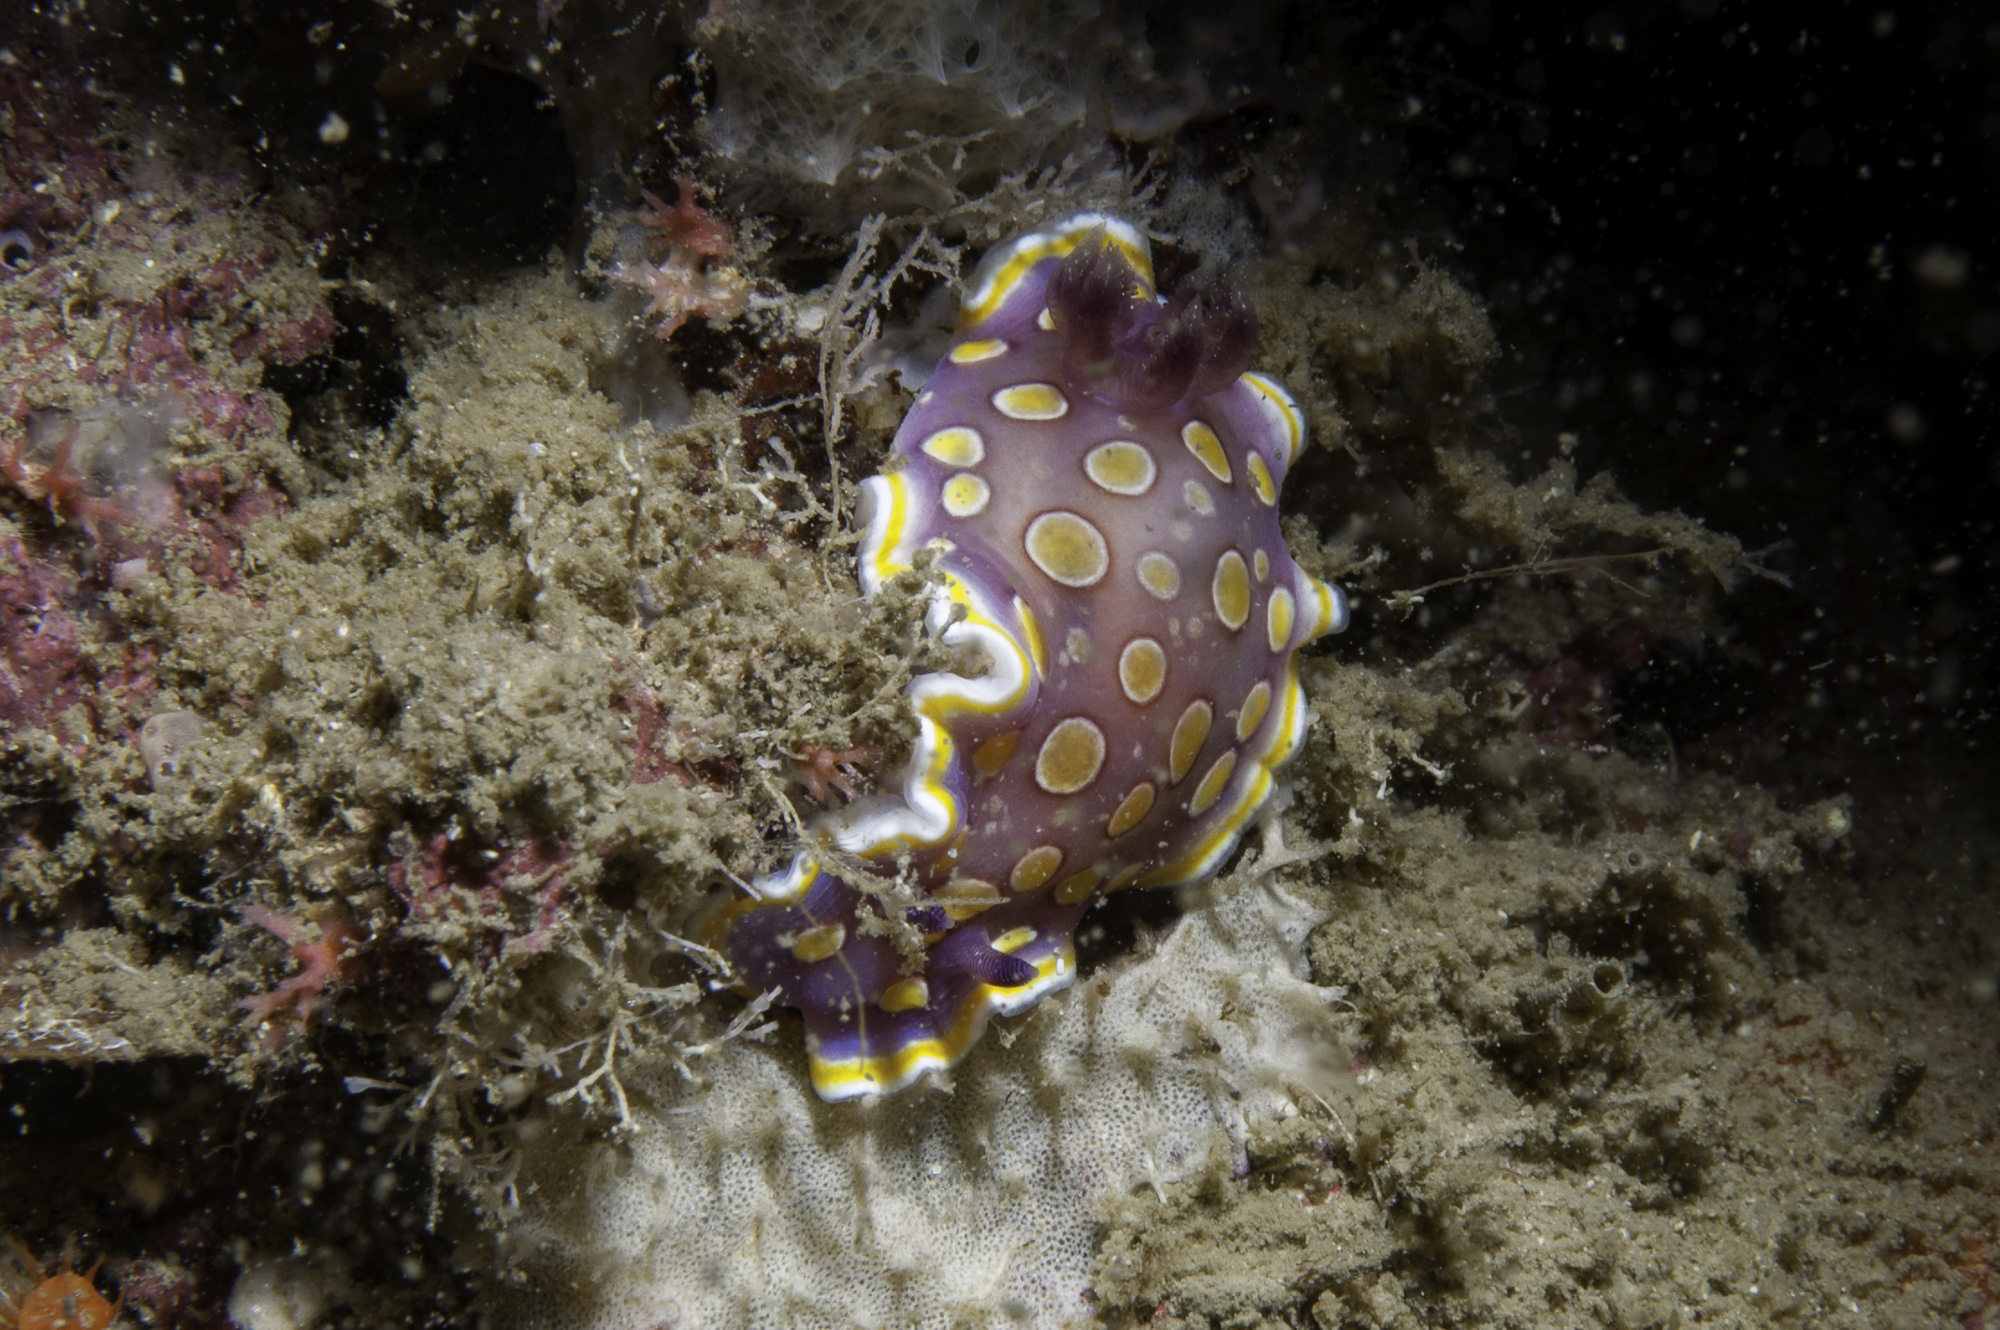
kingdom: Animalia
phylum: Mollusca
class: Gastropoda
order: Nudibranchia
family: Chromodorididae
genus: Felimida
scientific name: Felimida luteorosea
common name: Yellow-dotted doris
